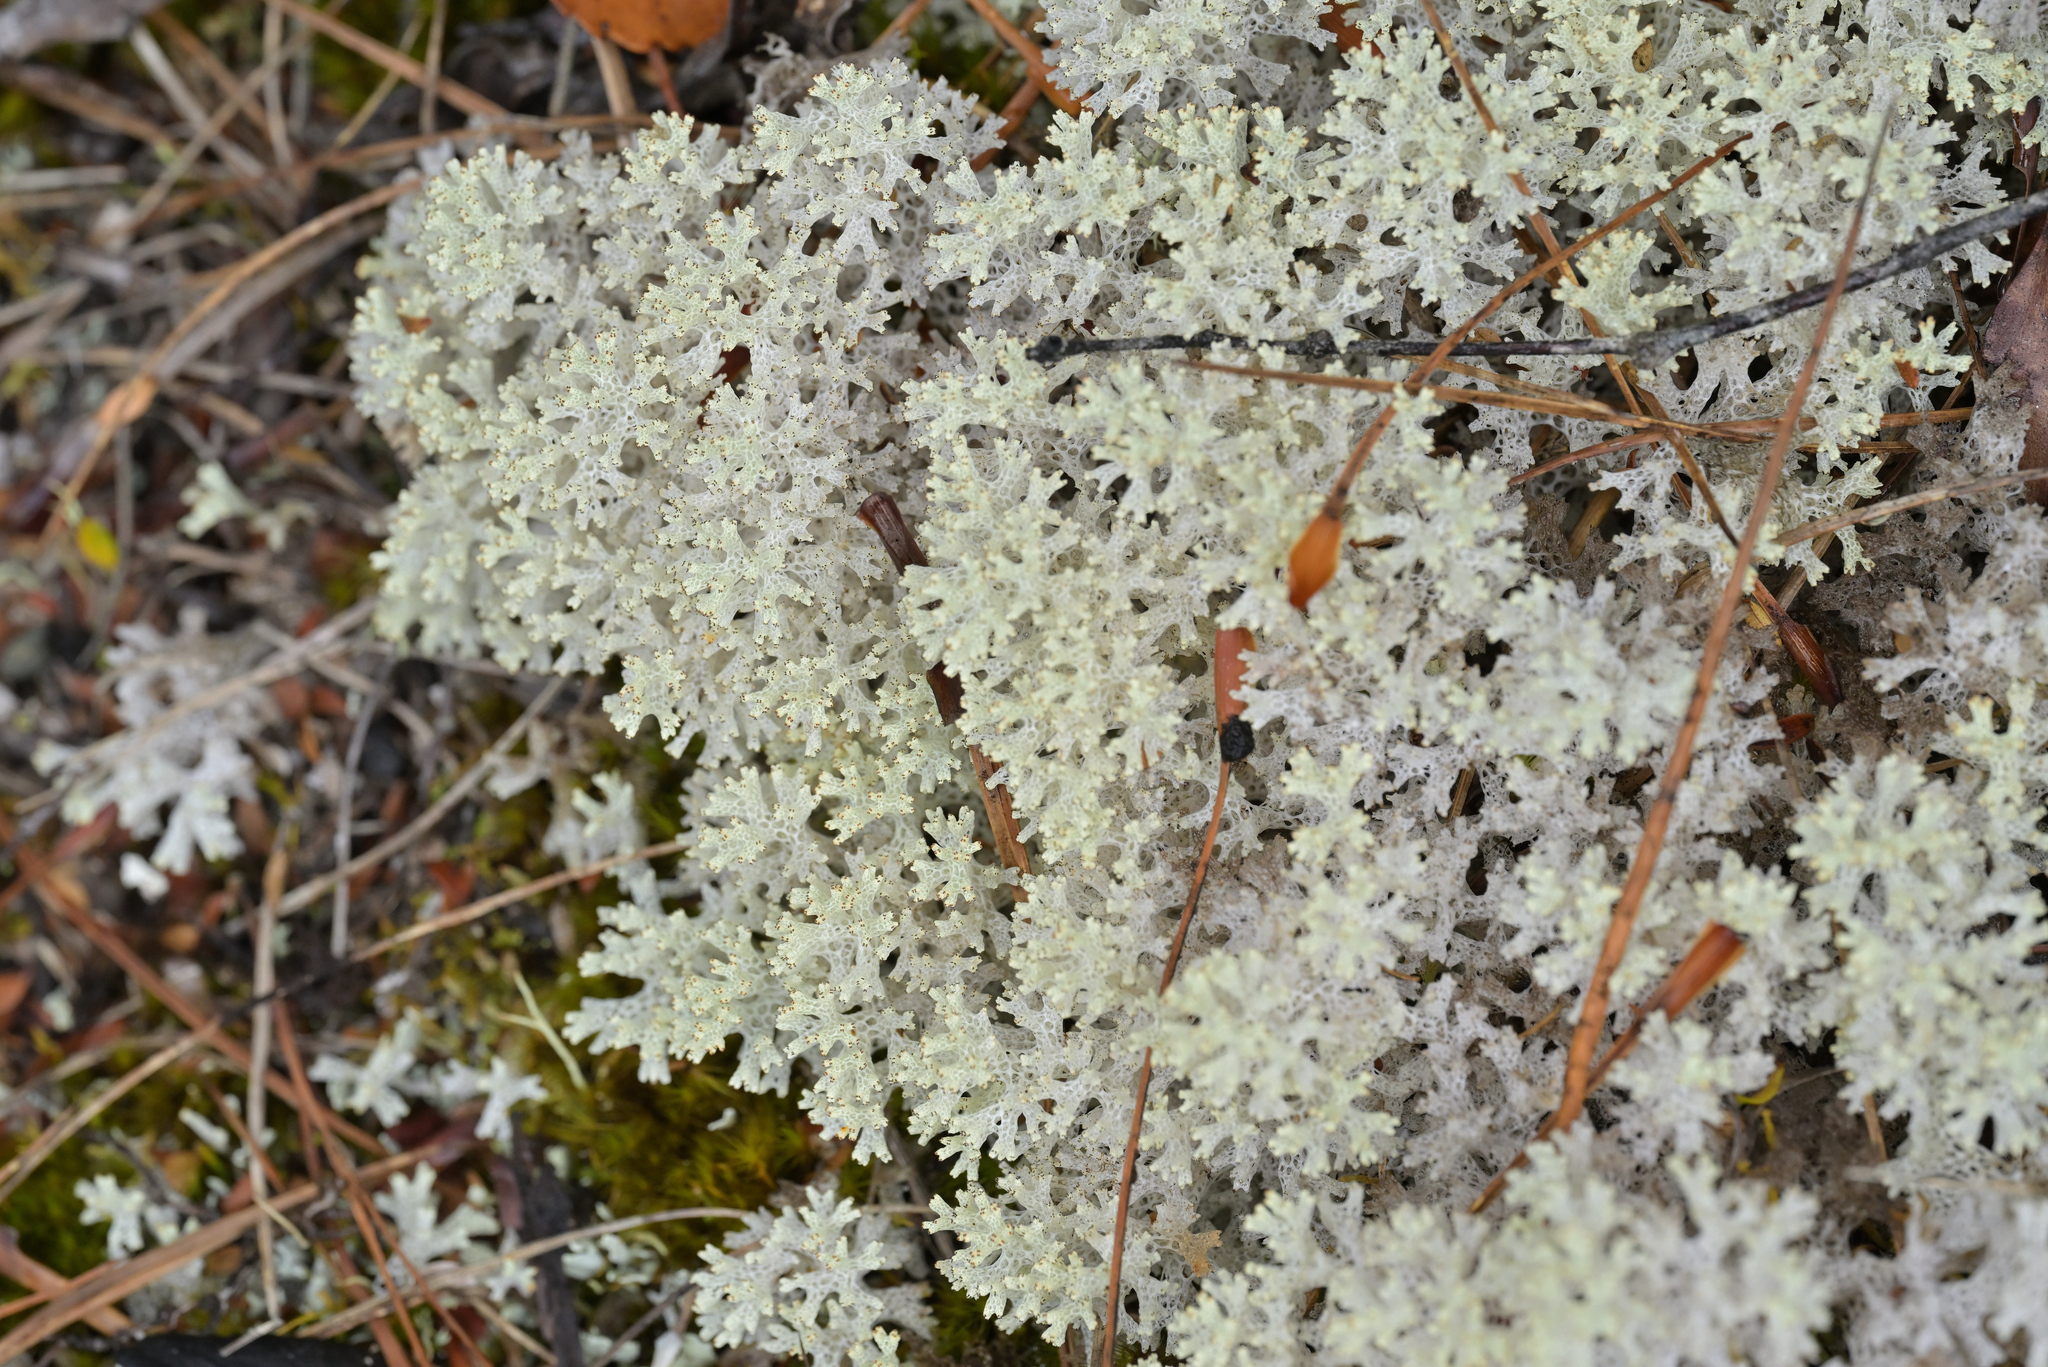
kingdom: Fungi
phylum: Ascomycota
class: Lecanoromycetes
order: Lecanorales
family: Cladoniaceae
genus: Pulchrocladia
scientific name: Pulchrocladia retipora
